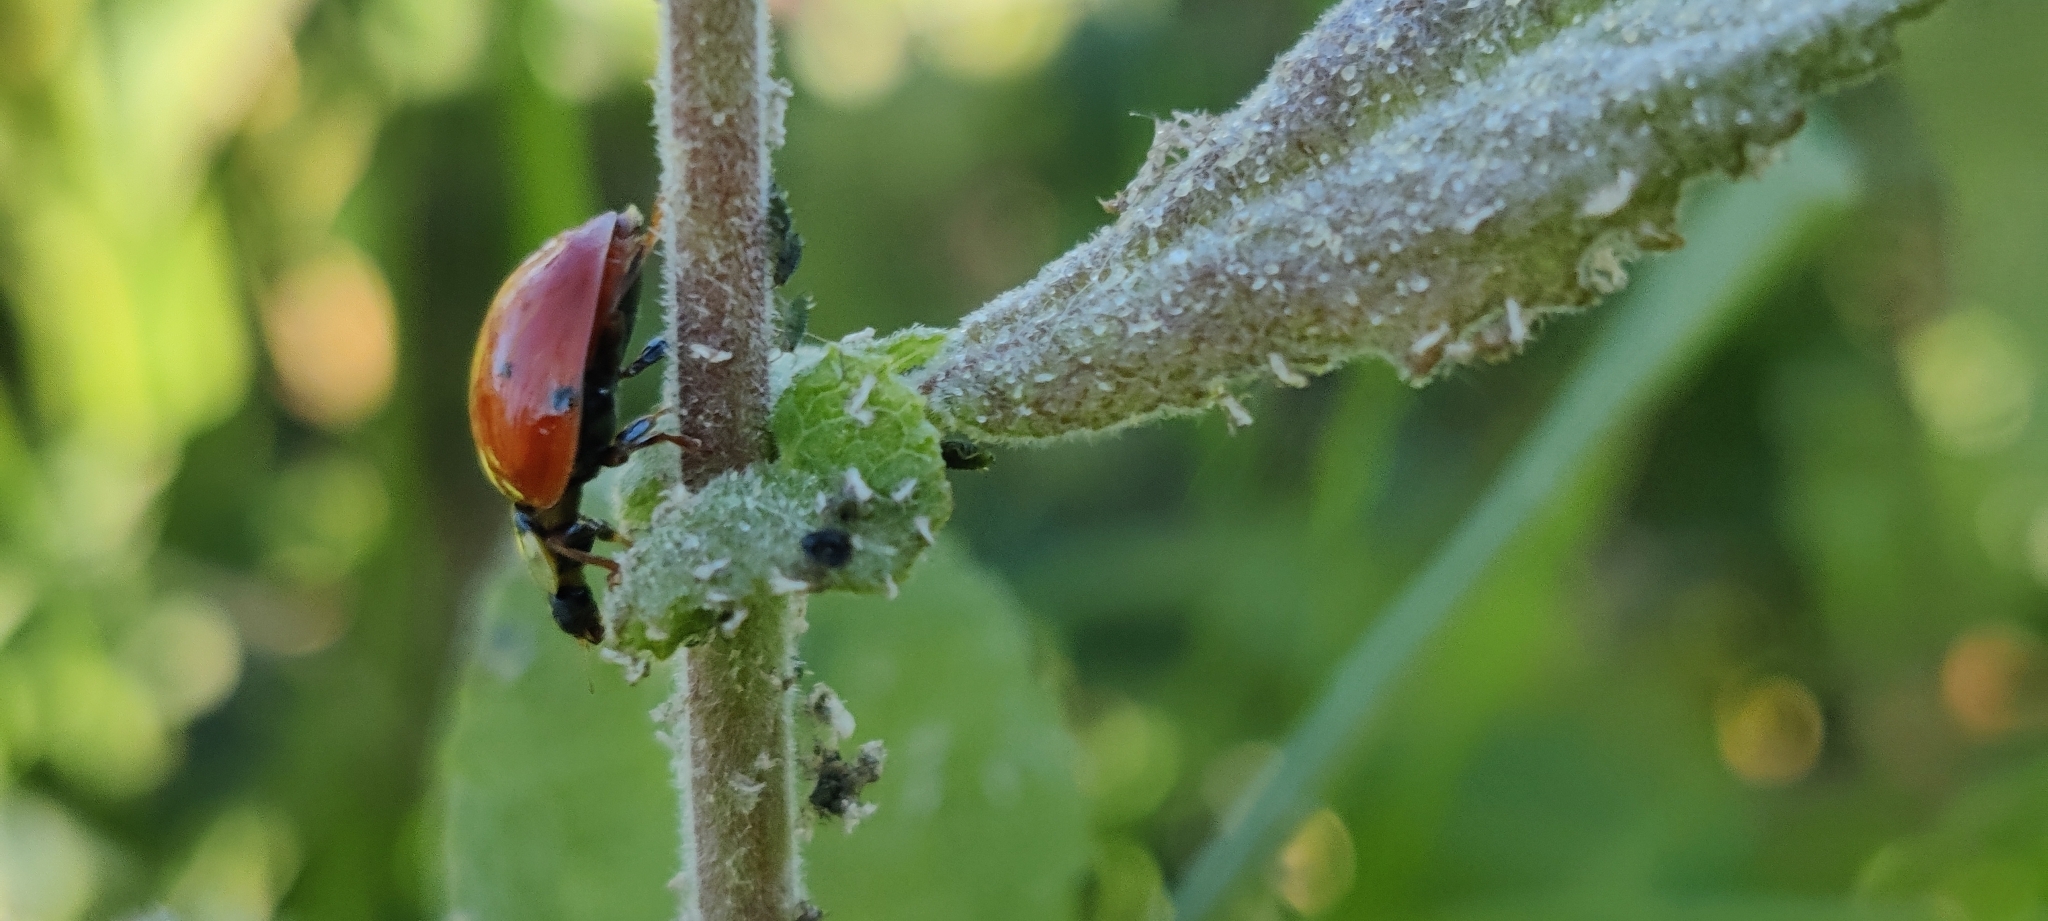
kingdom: Animalia
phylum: Arthropoda
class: Insecta
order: Coleoptera
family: Coccinellidae
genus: Harmonia
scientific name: Harmonia axyridis
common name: Harlequin ladybird
